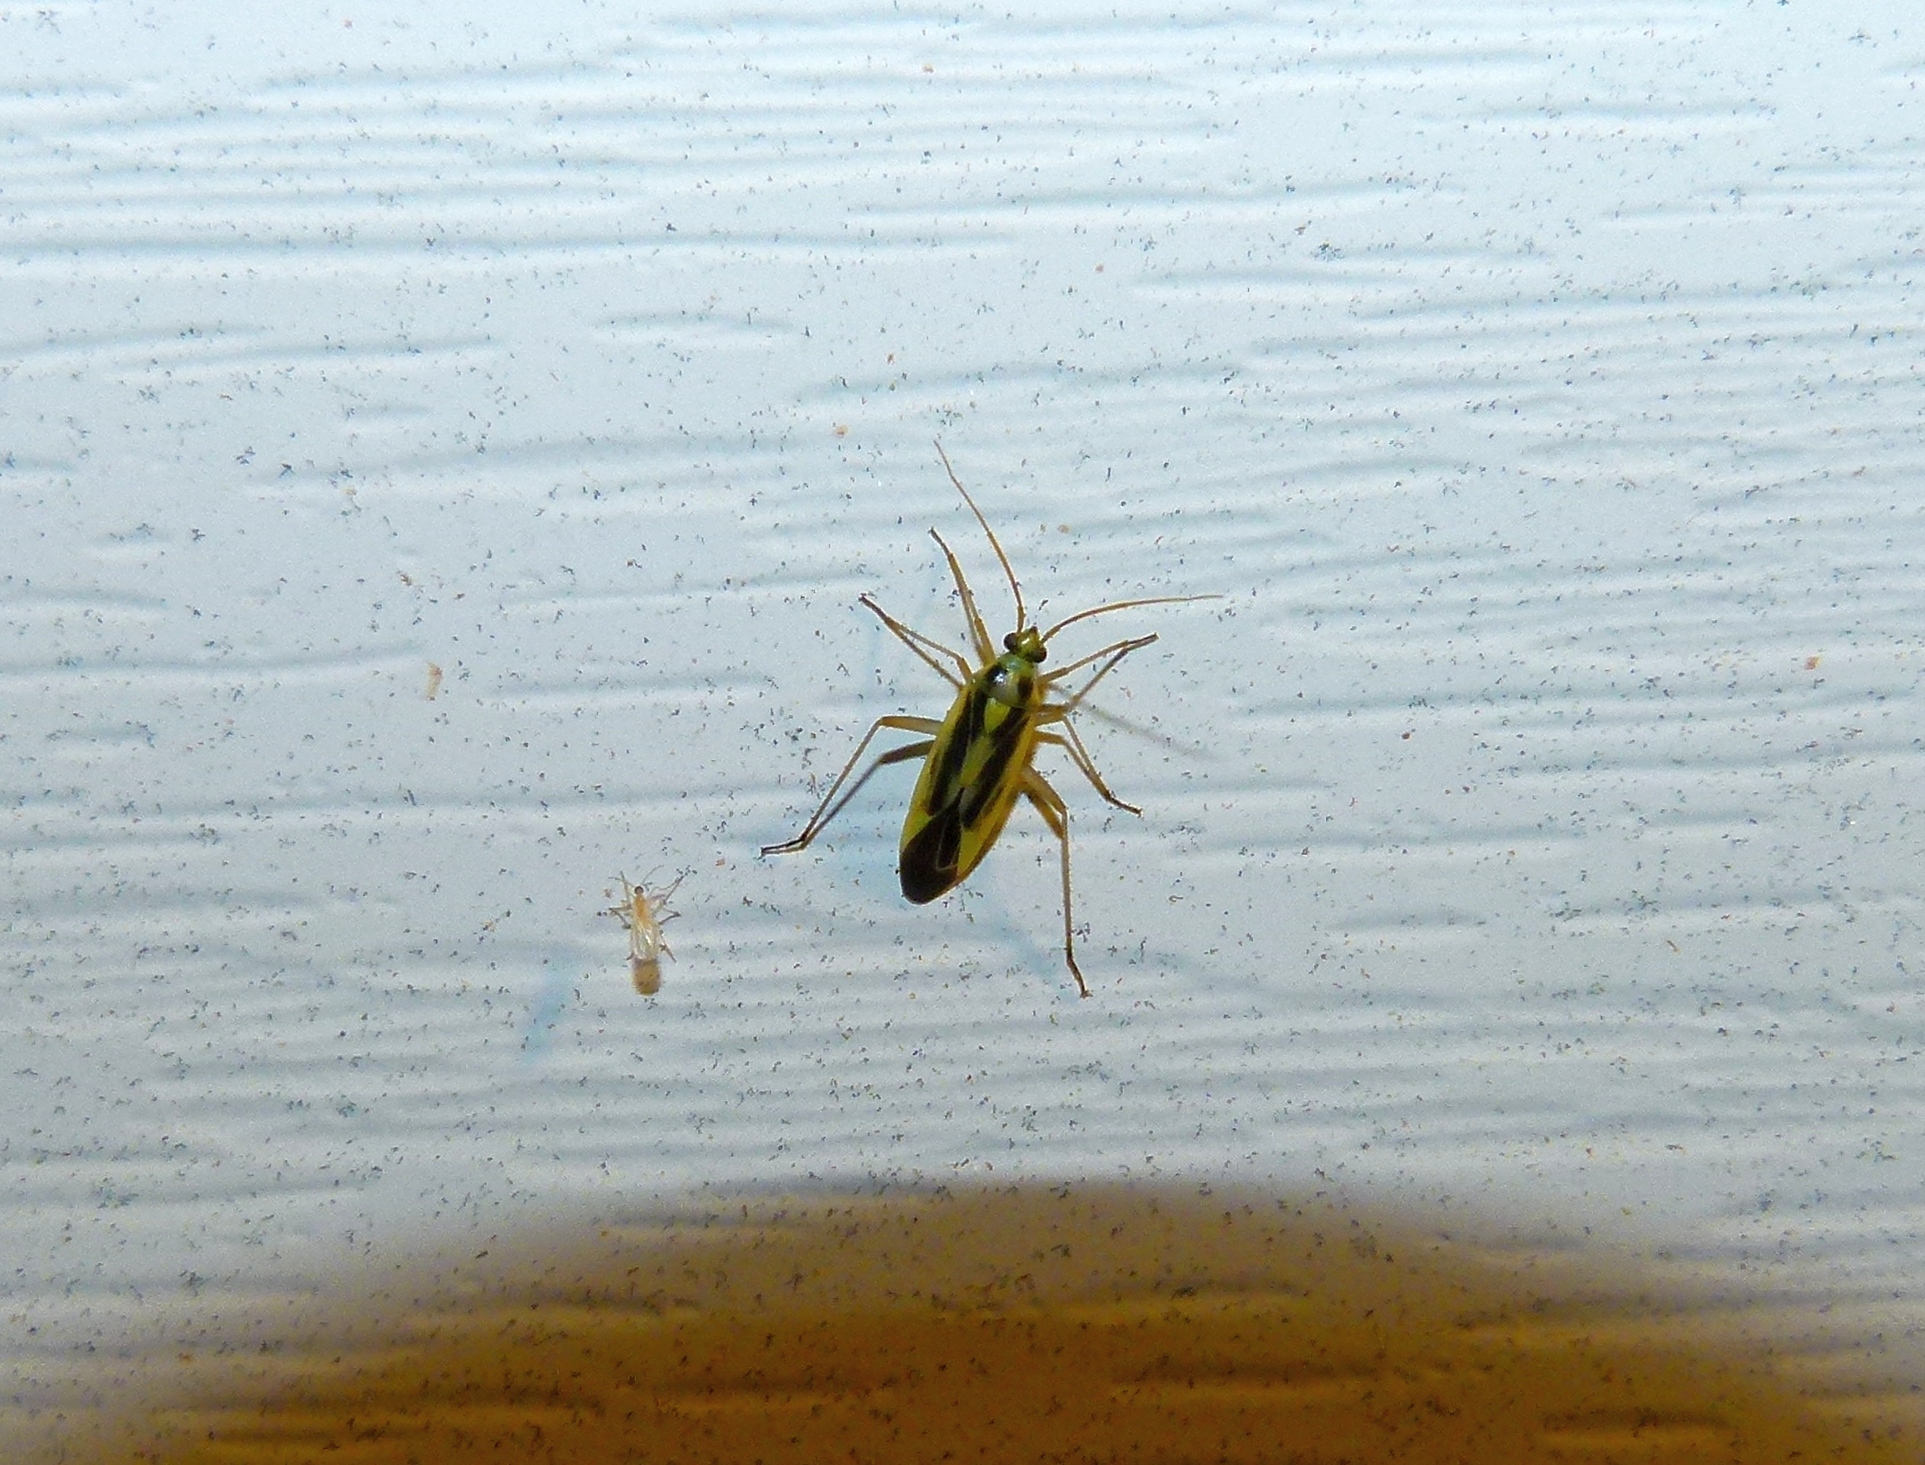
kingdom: Animalia
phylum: Arthropoda
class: Insecta
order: Hemiptera
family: Miridae
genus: Stenotus
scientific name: Stenotus binotatus
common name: Plant bug
